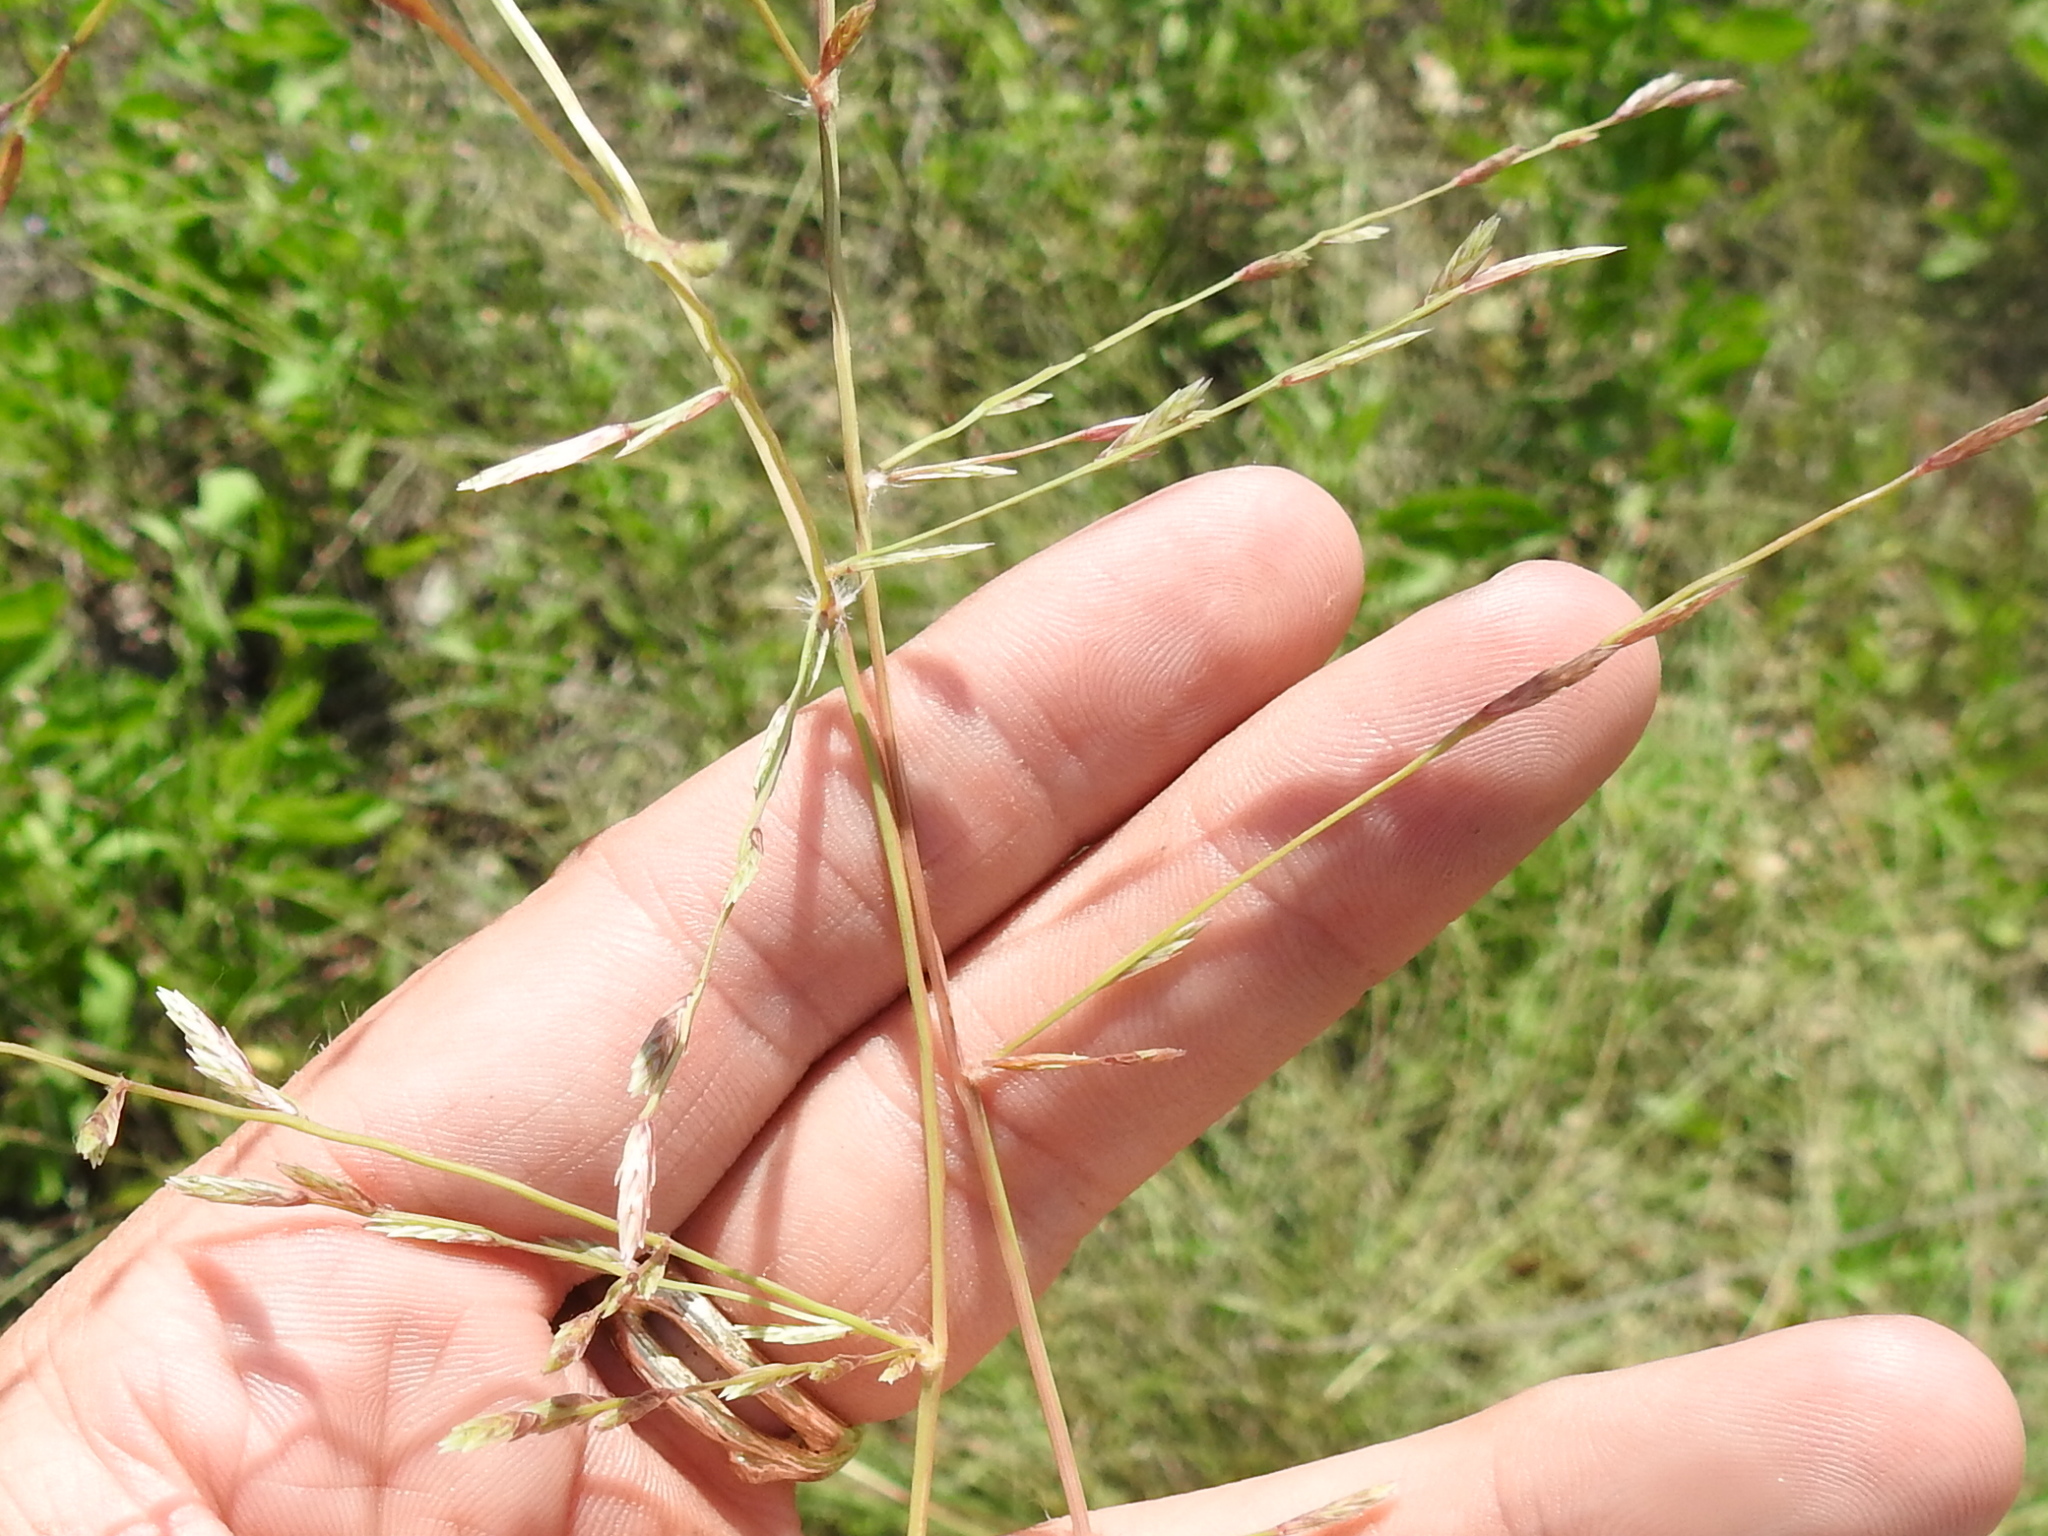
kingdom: Plantae
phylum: Tracheophyta
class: Liliopsida
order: Poales
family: Poaceae
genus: Eragrostis
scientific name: Eragrostis sessilispica
